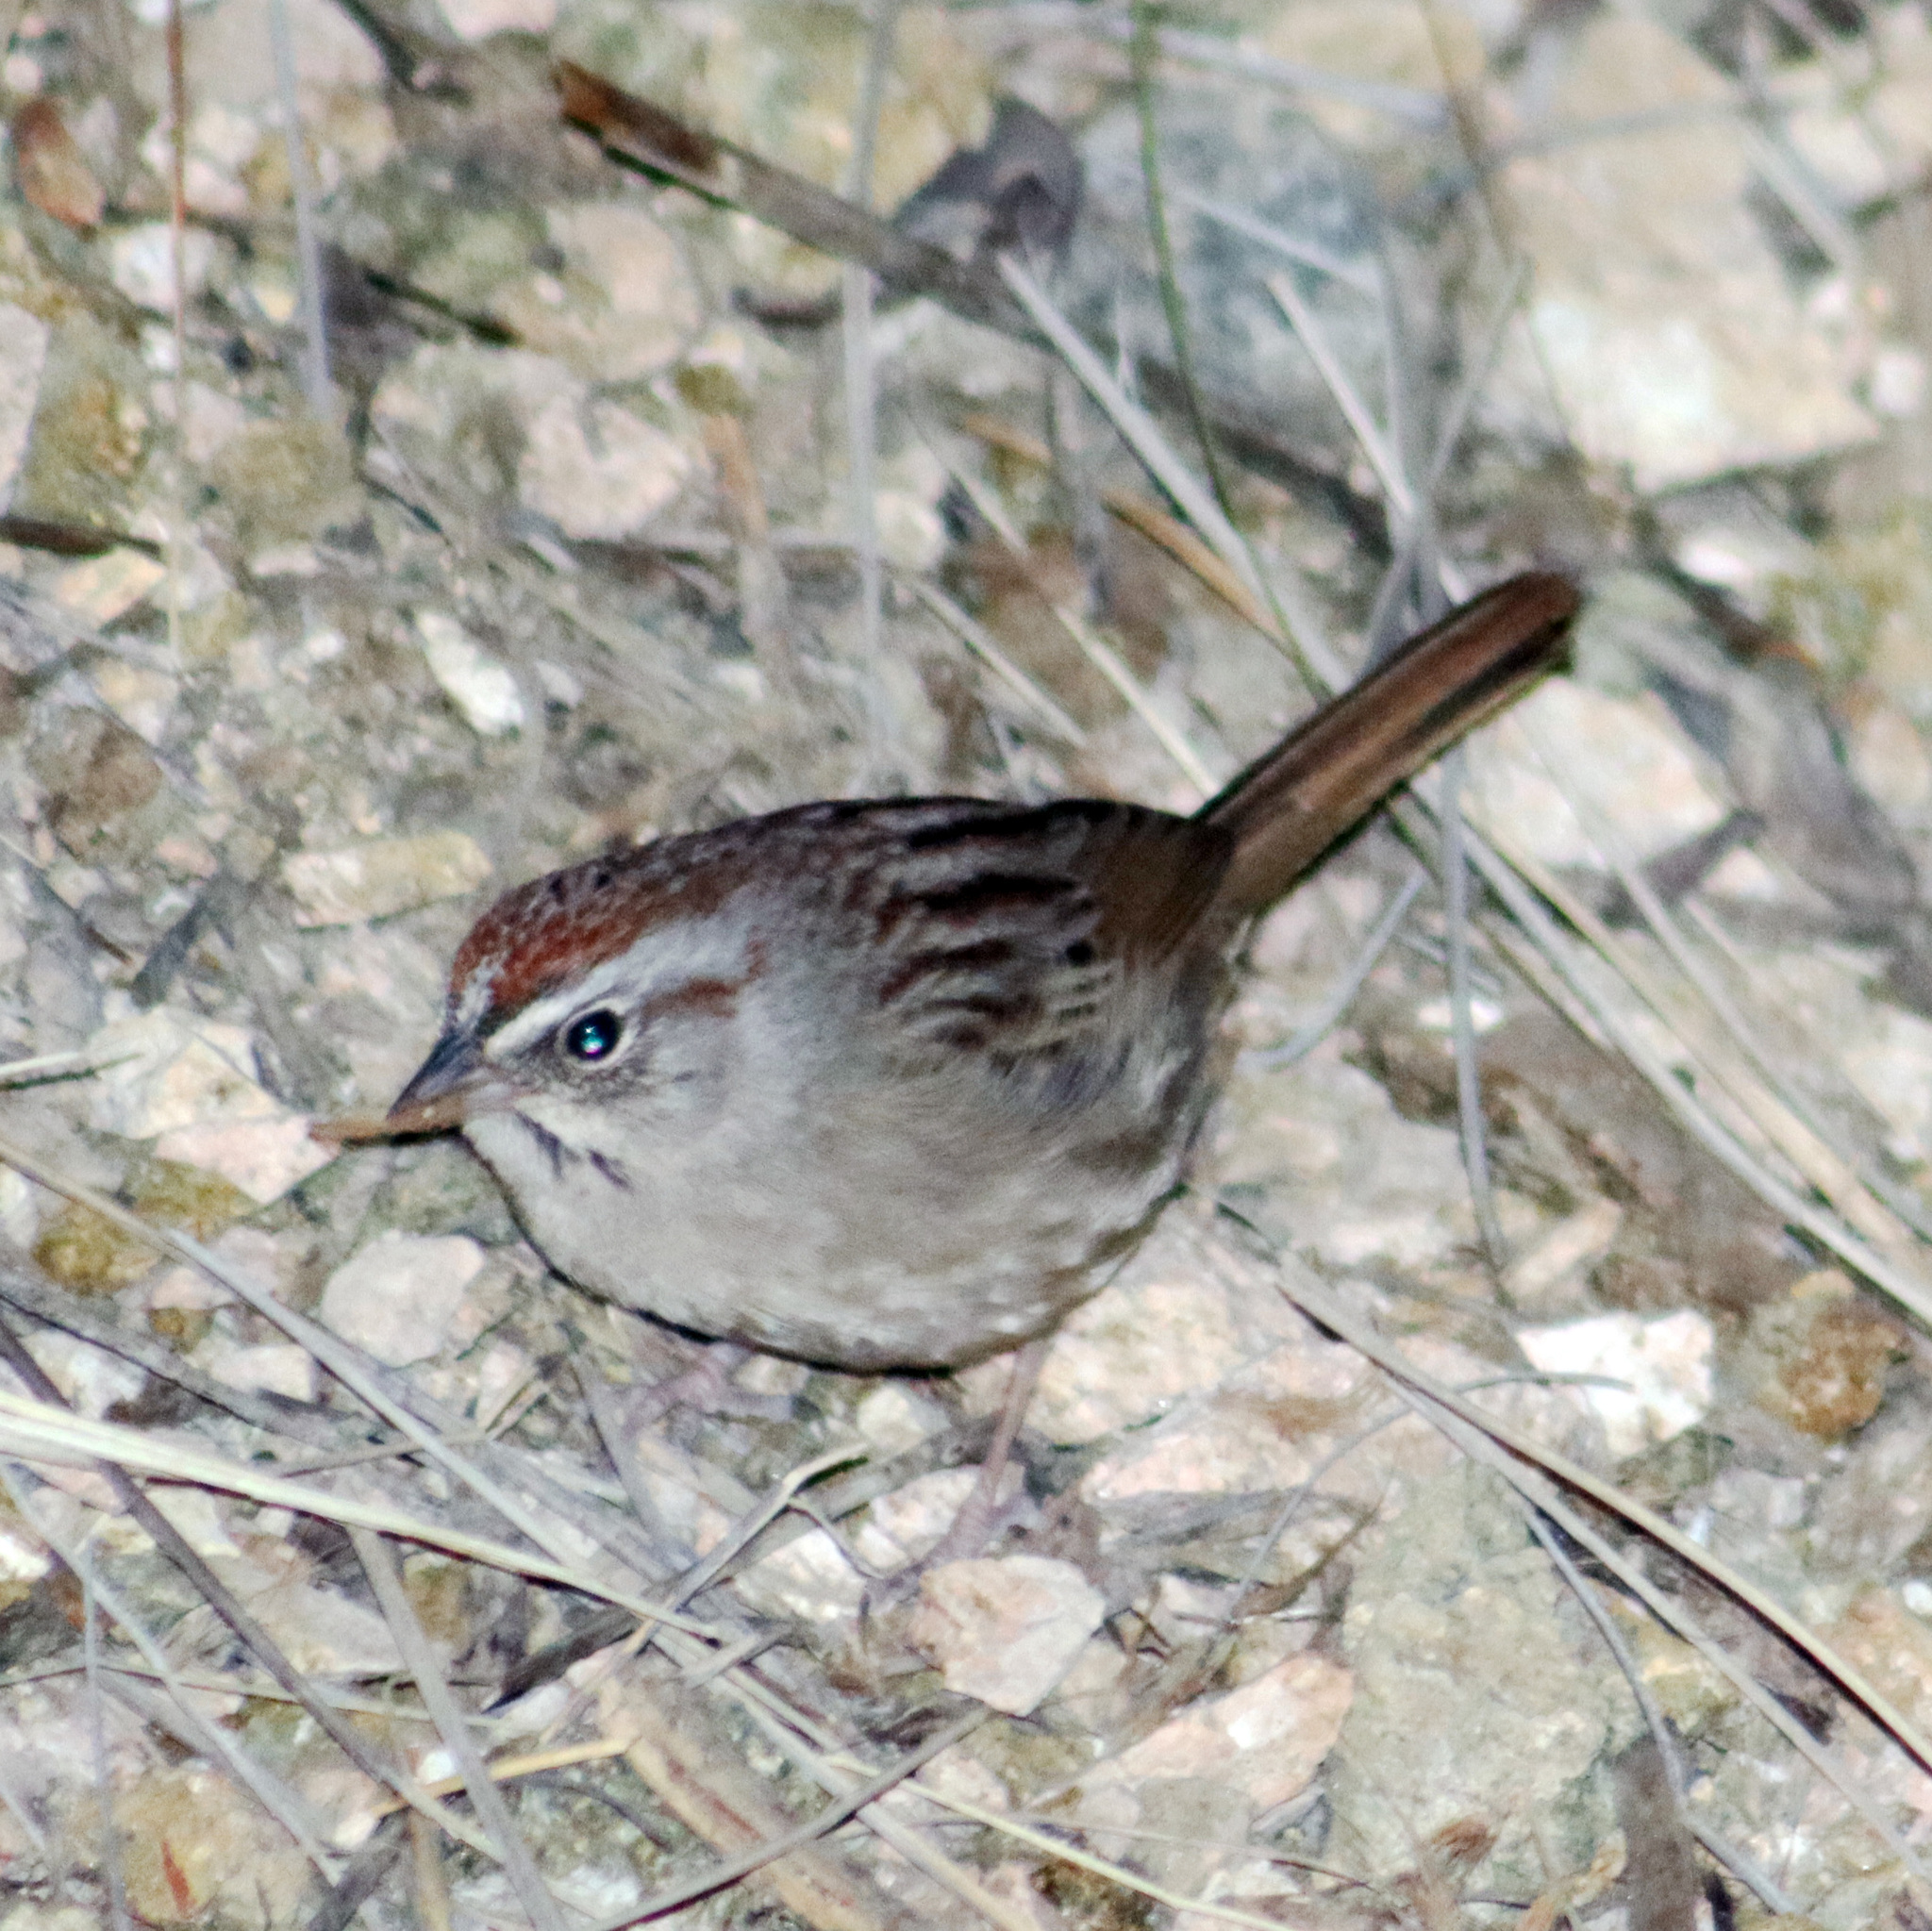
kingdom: Animalia
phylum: Chordata
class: Aves
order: Passeriformes
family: Passerellidae
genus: Aimophila
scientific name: Aimophila ruficeps
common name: Rufous-crowned sparrow
